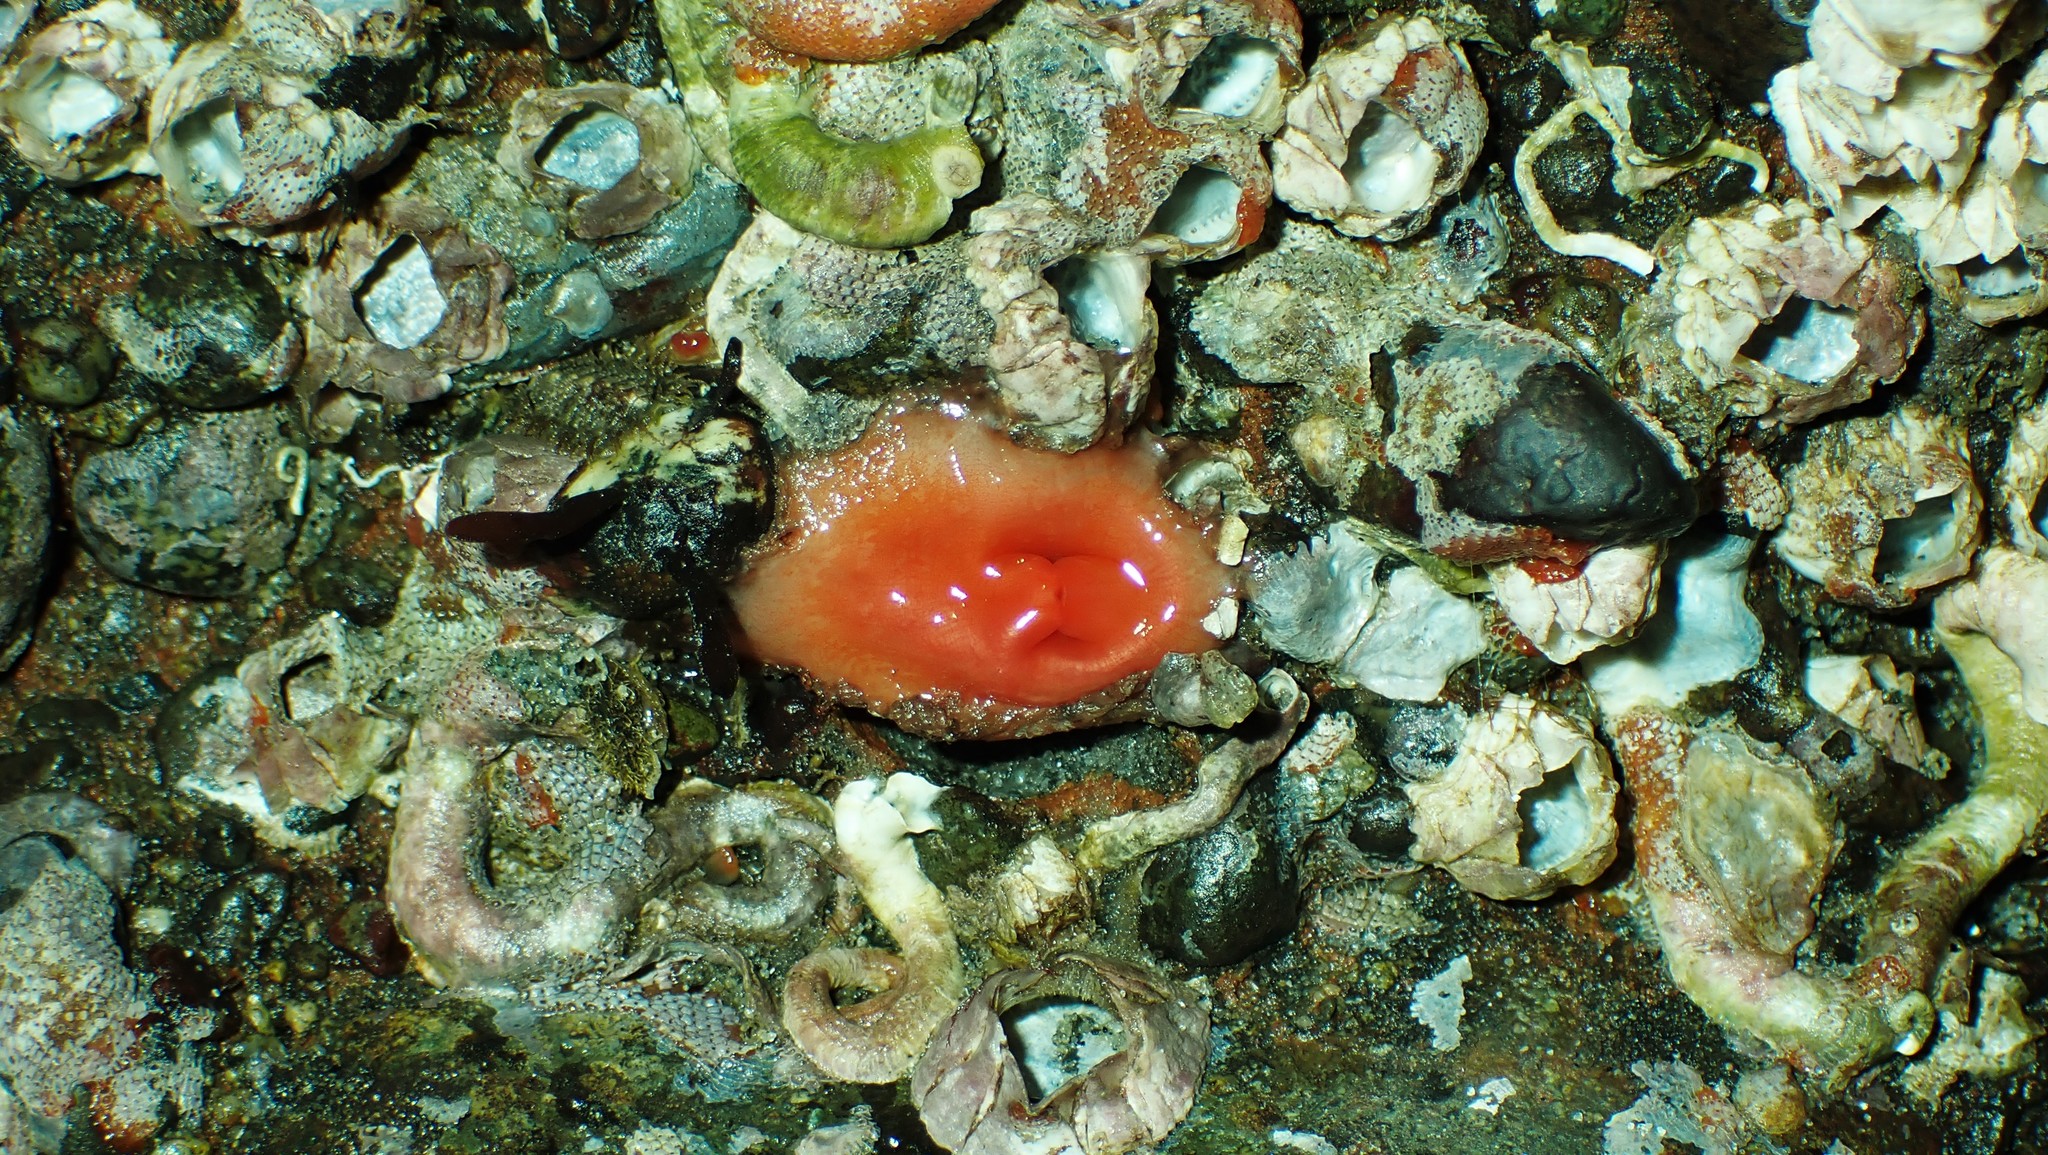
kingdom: Animalia
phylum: Chordata
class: Ascidiacea
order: Stolidobranchia
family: Styelidae
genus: Cnemidocarpa
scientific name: Cnemidocarpa finmarkiensis
